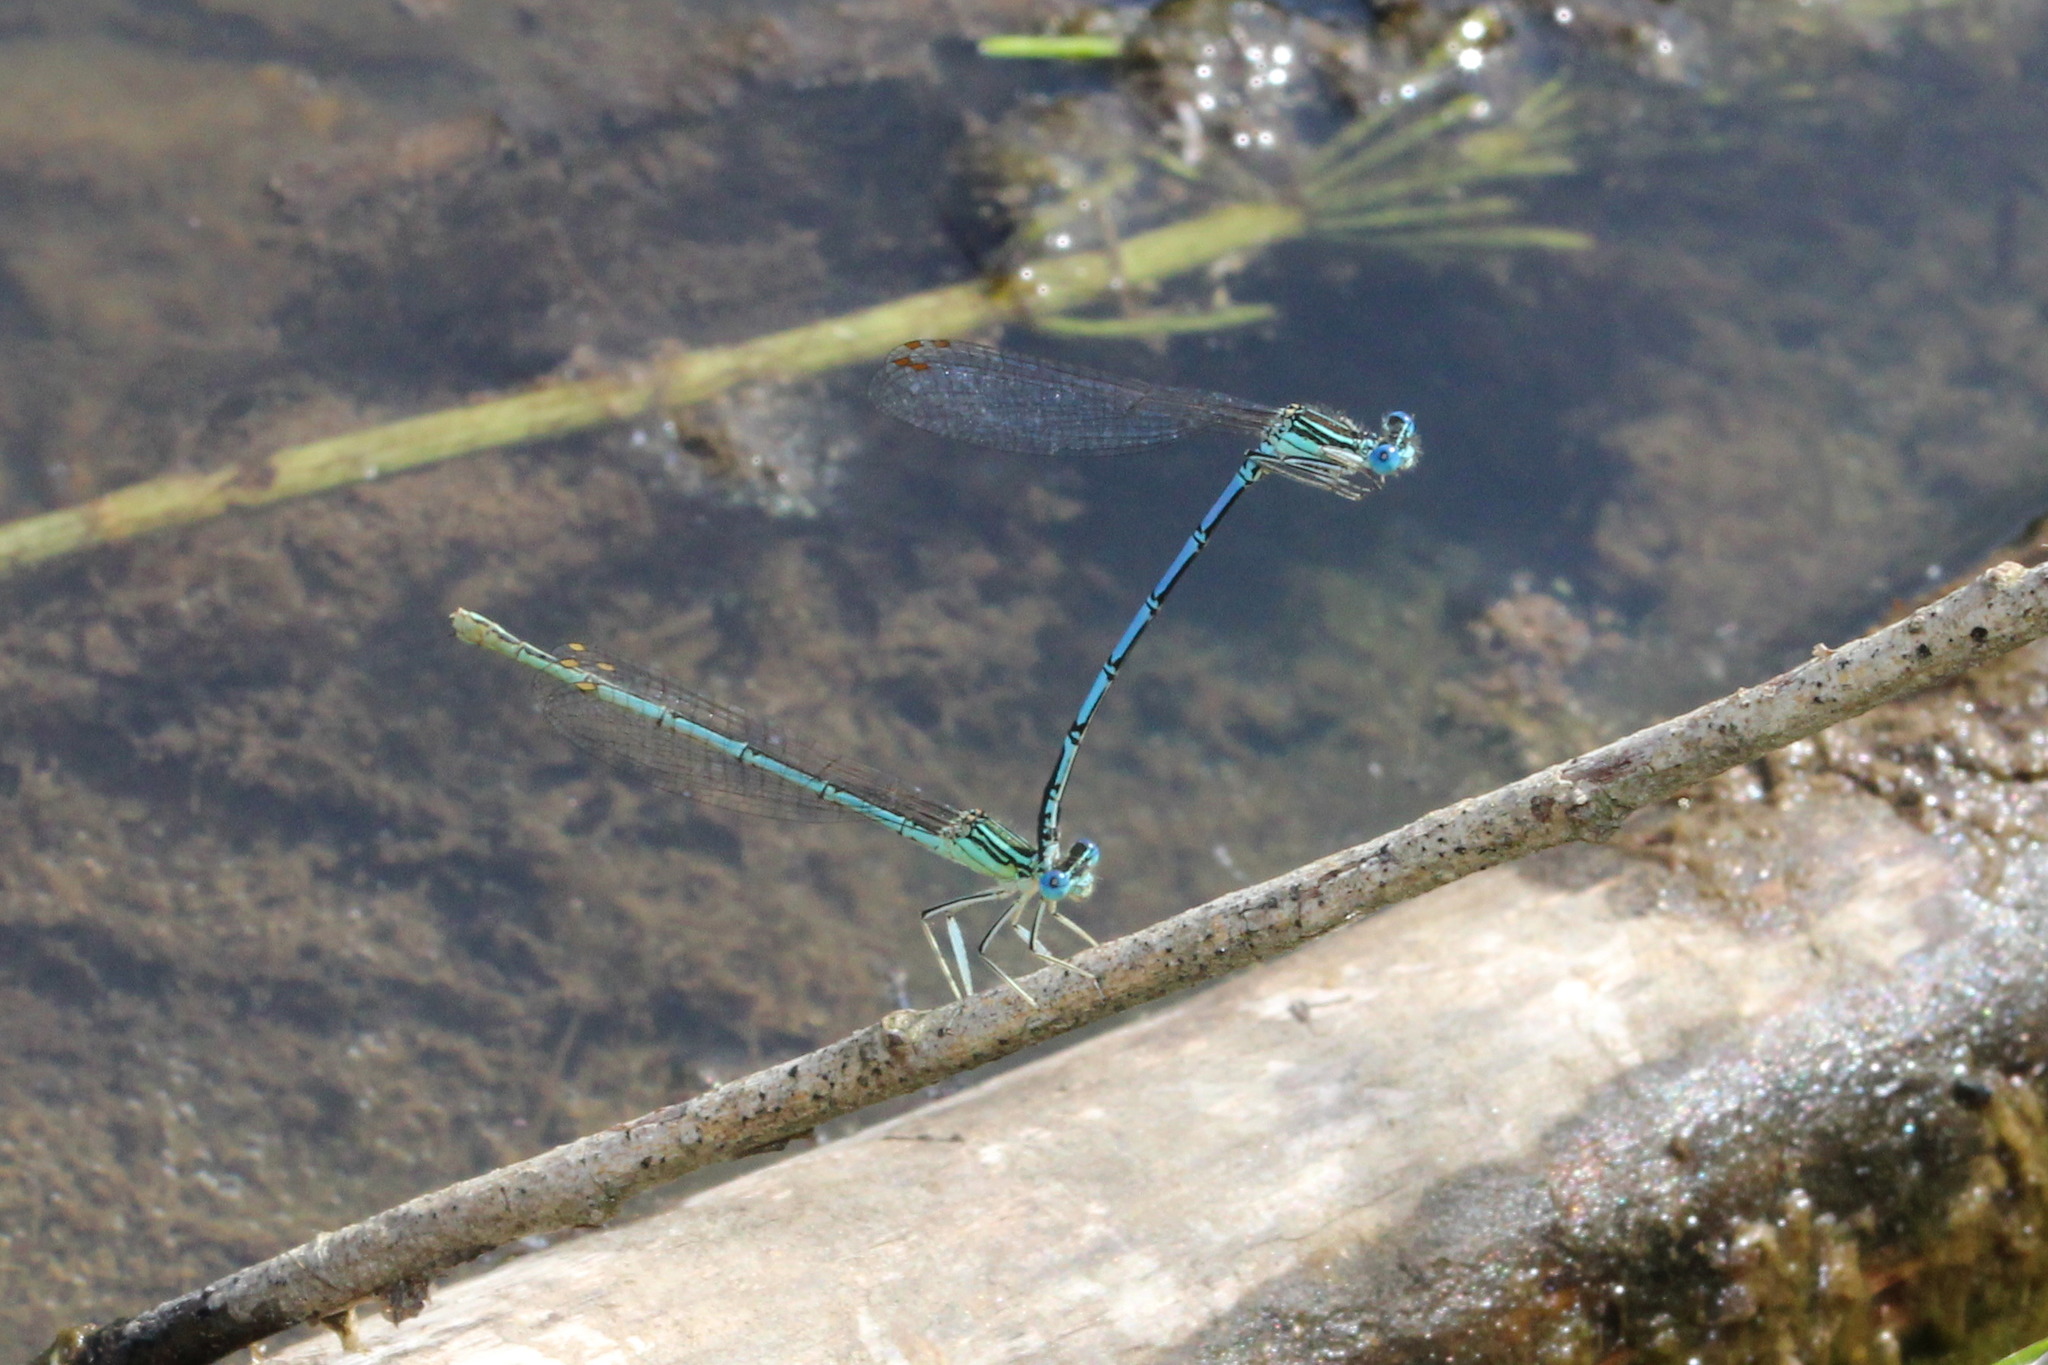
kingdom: Animalia
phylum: Arthropoda
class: Insecta
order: Odonata
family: Platycnemididae
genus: Platycnemis
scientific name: Platycnemis pennipes
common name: White-legged damselfly
